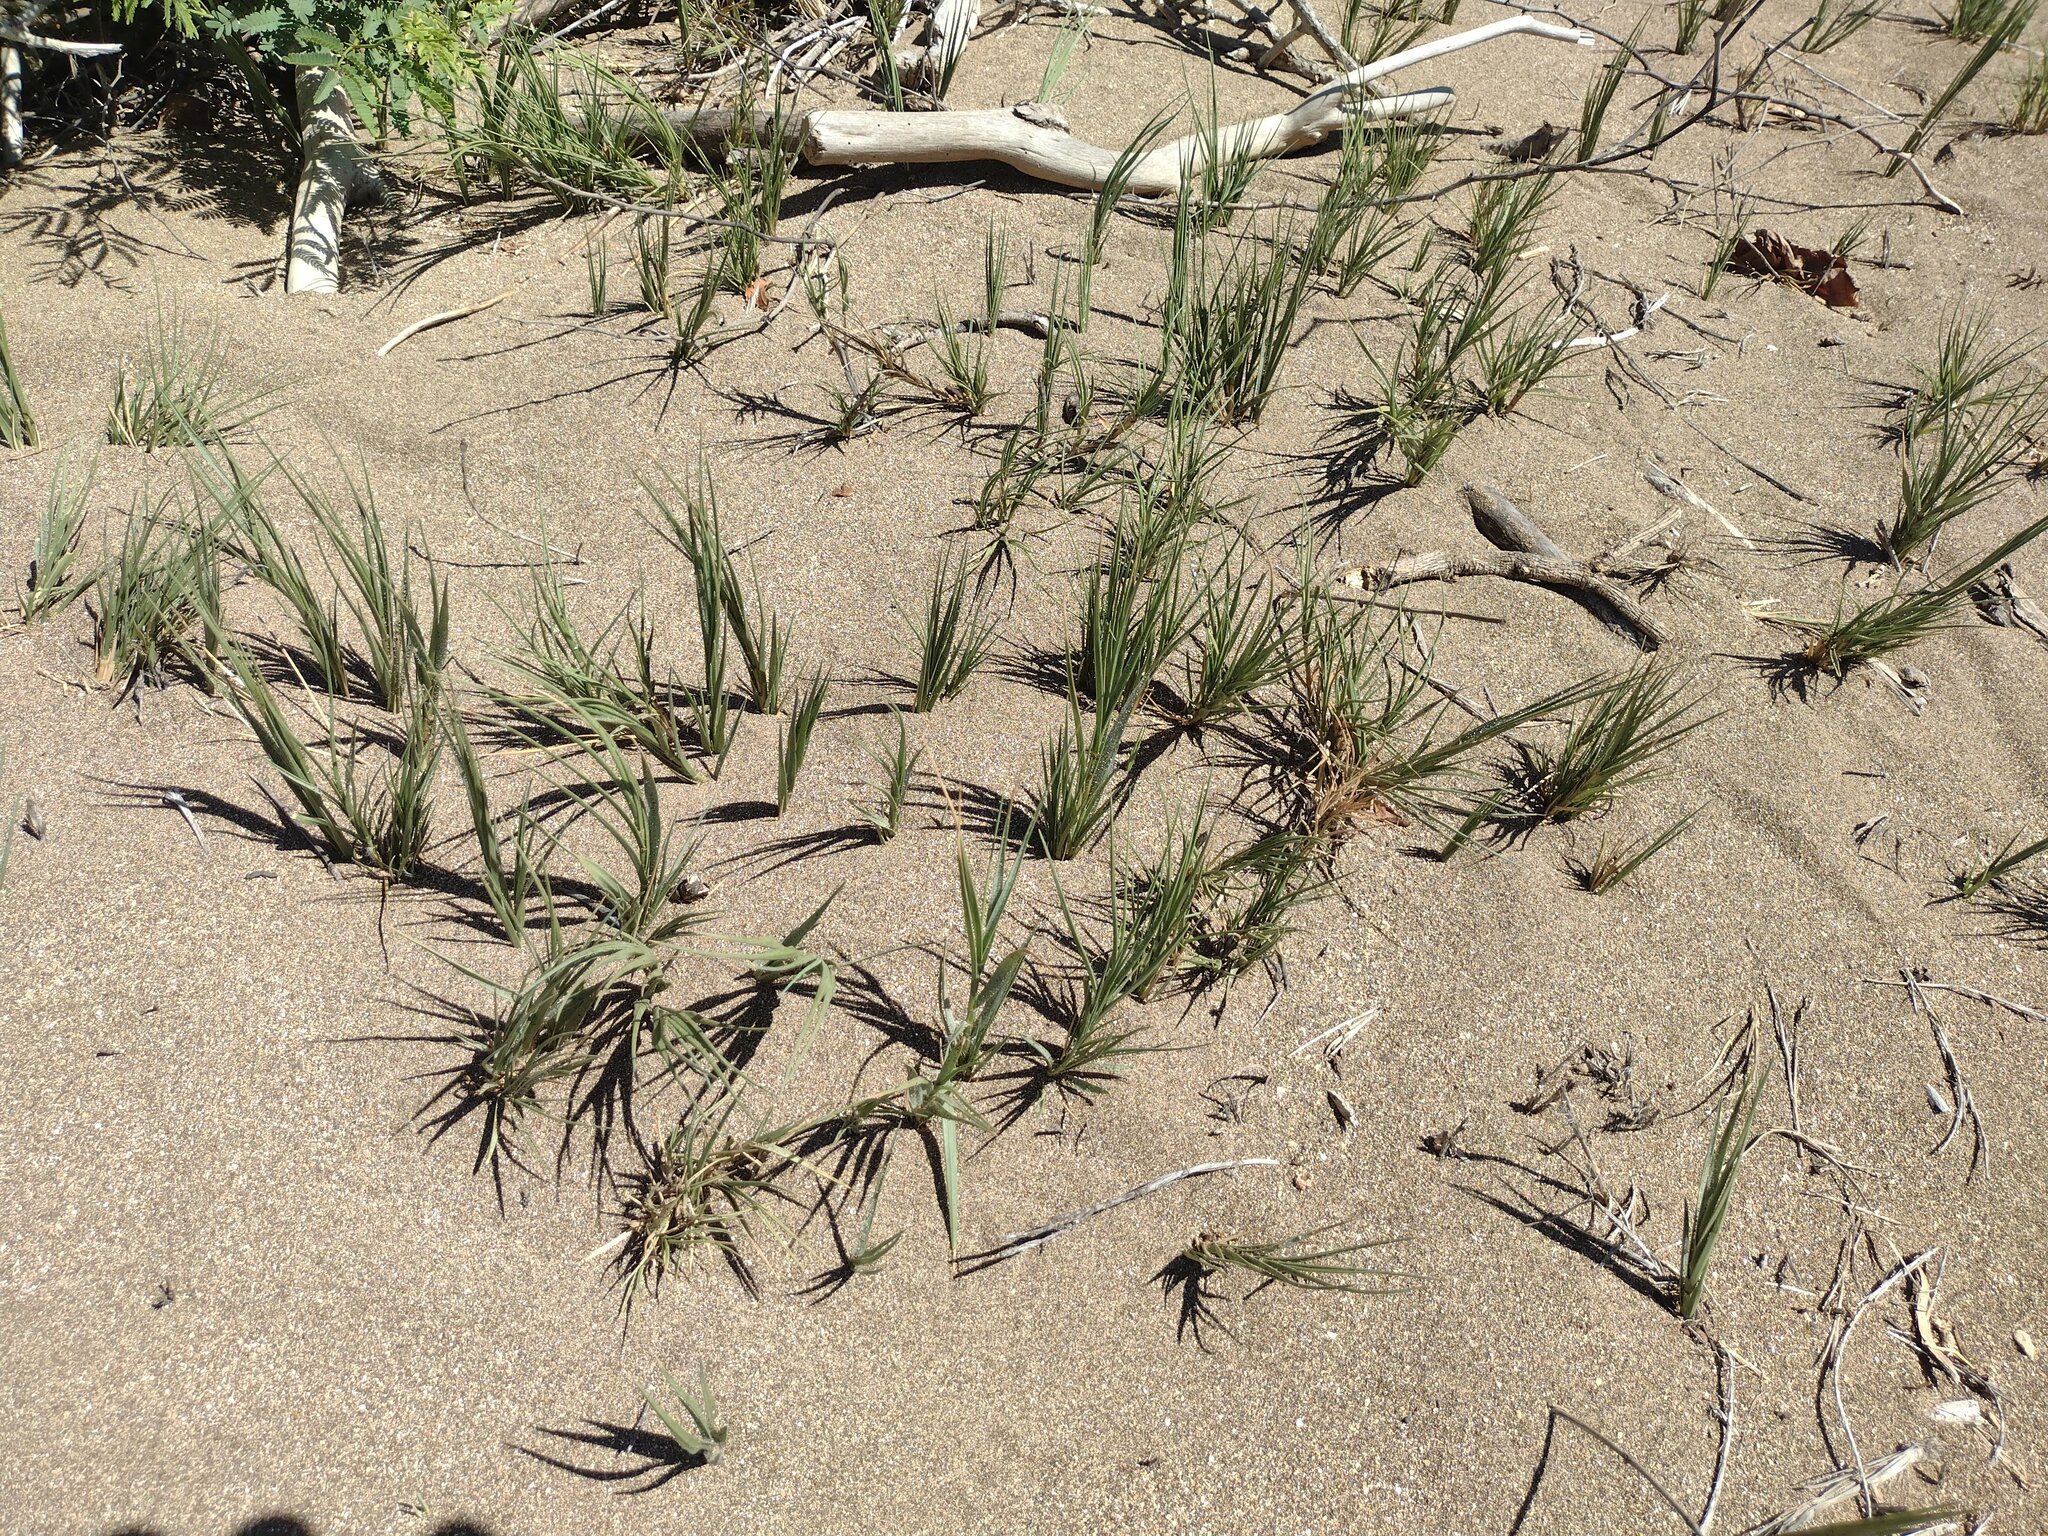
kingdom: Plantae
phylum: Tracheophyta
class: Liliopsida
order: Poales
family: Poaceae
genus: Sporobolus
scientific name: Sporobolus virginicus
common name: Beach dropseed
